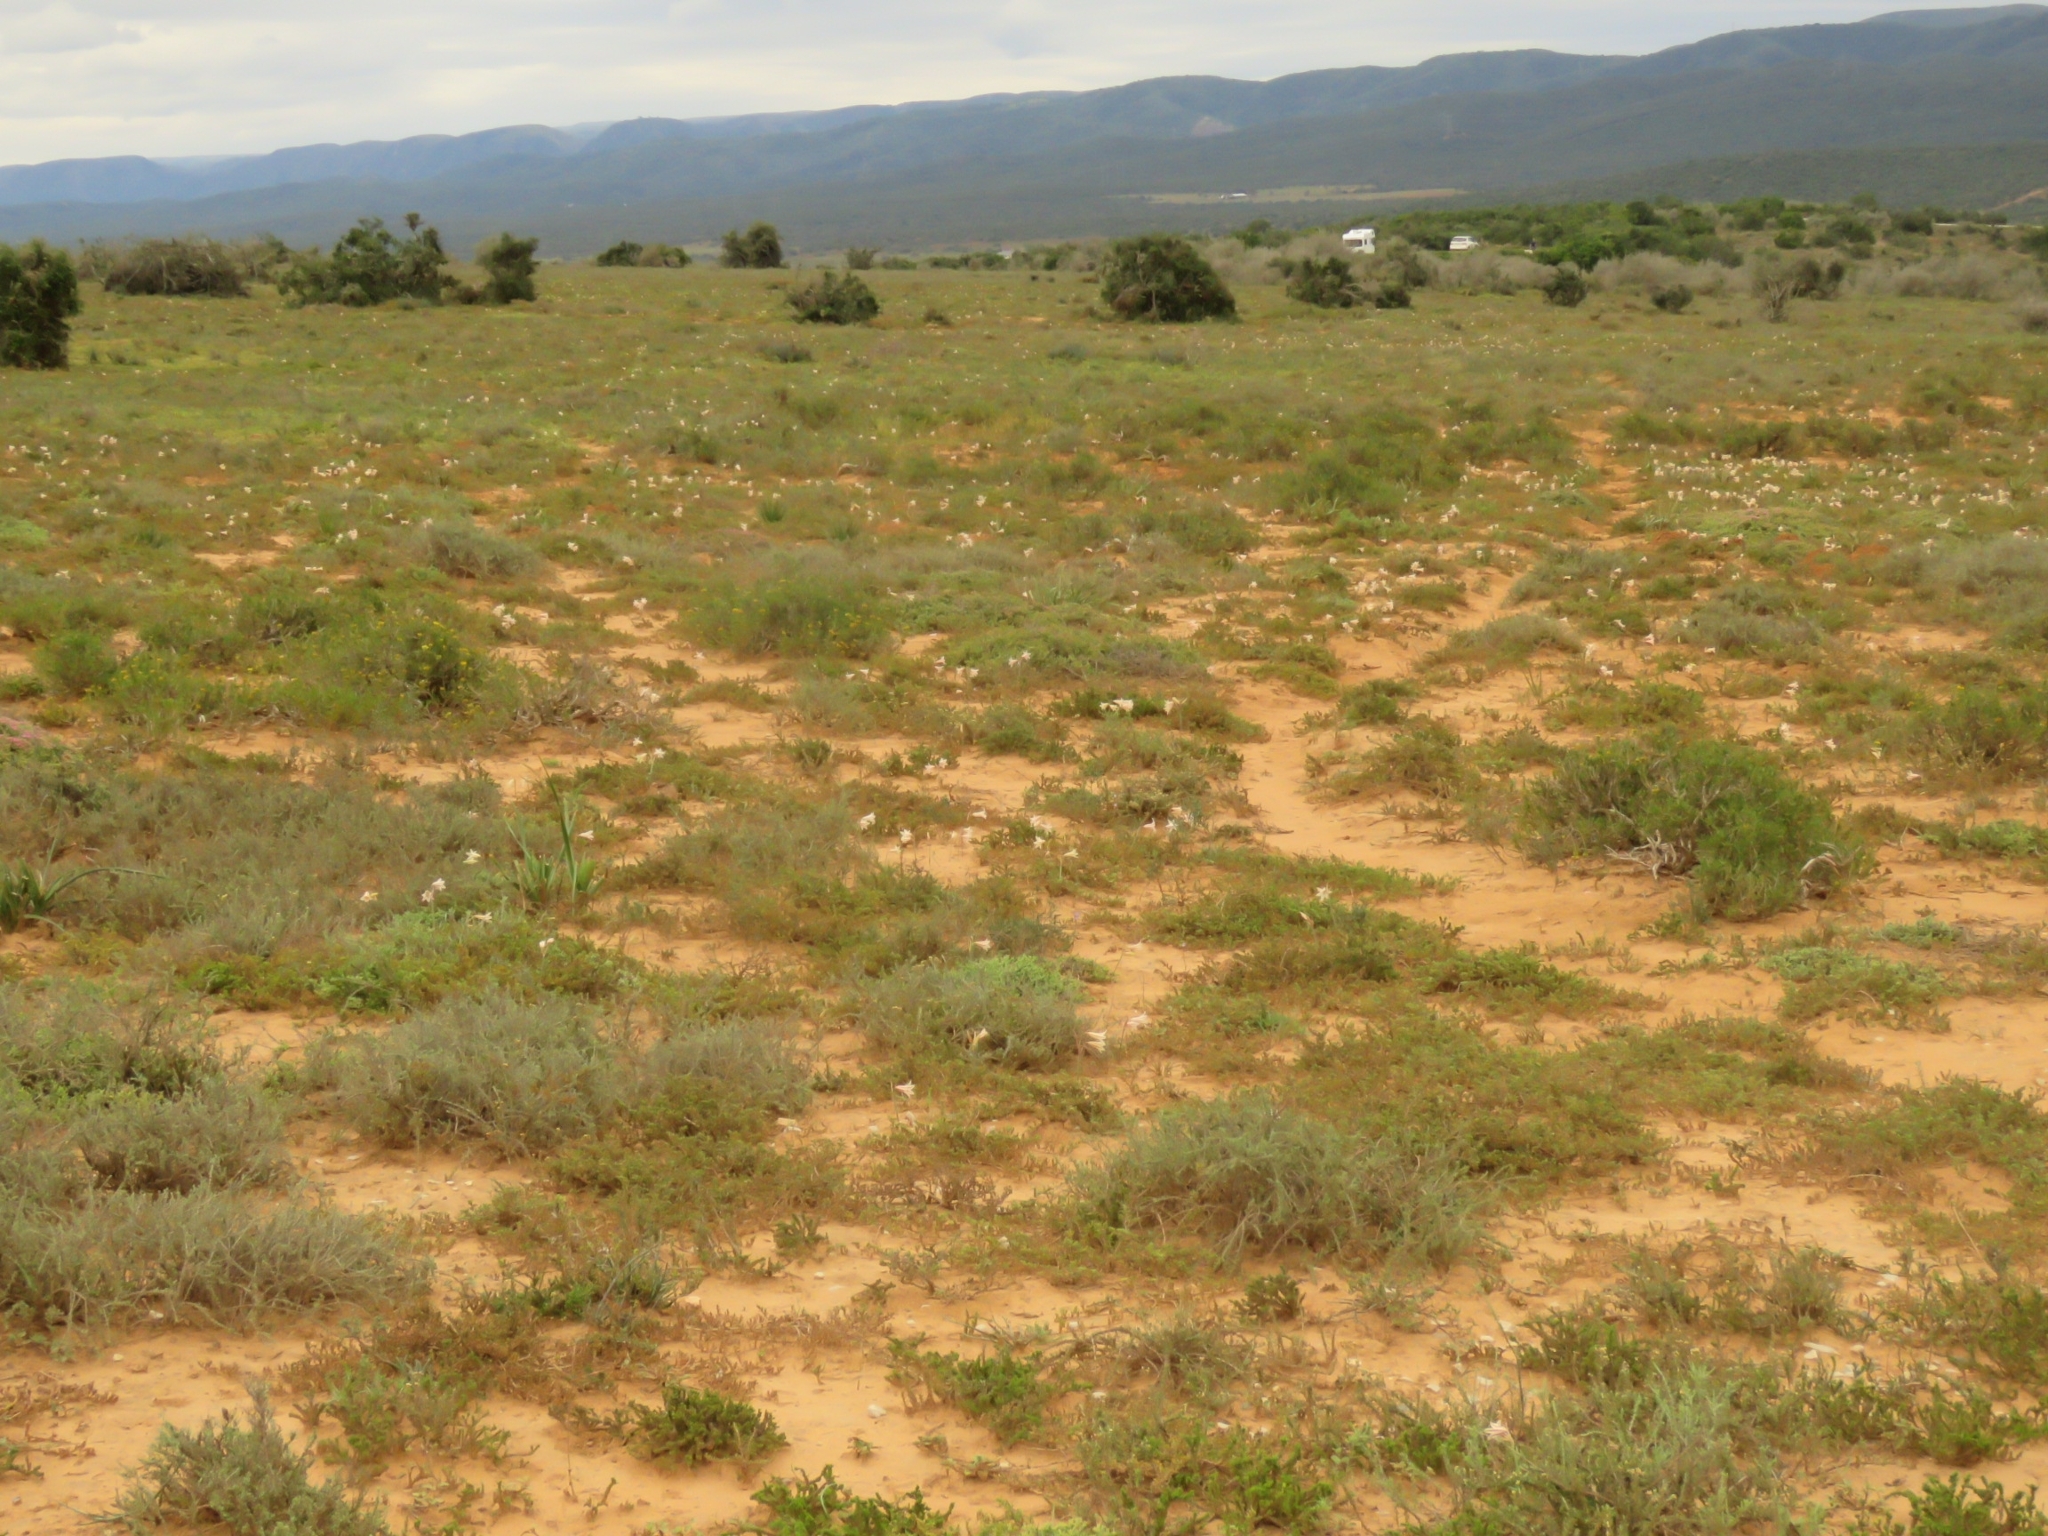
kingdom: Plantae
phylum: Tracheophyta
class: Liliopsida
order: Asparagales
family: Amaryllidaceae
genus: Cyrtanthus
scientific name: Cyrtanthus helictus
